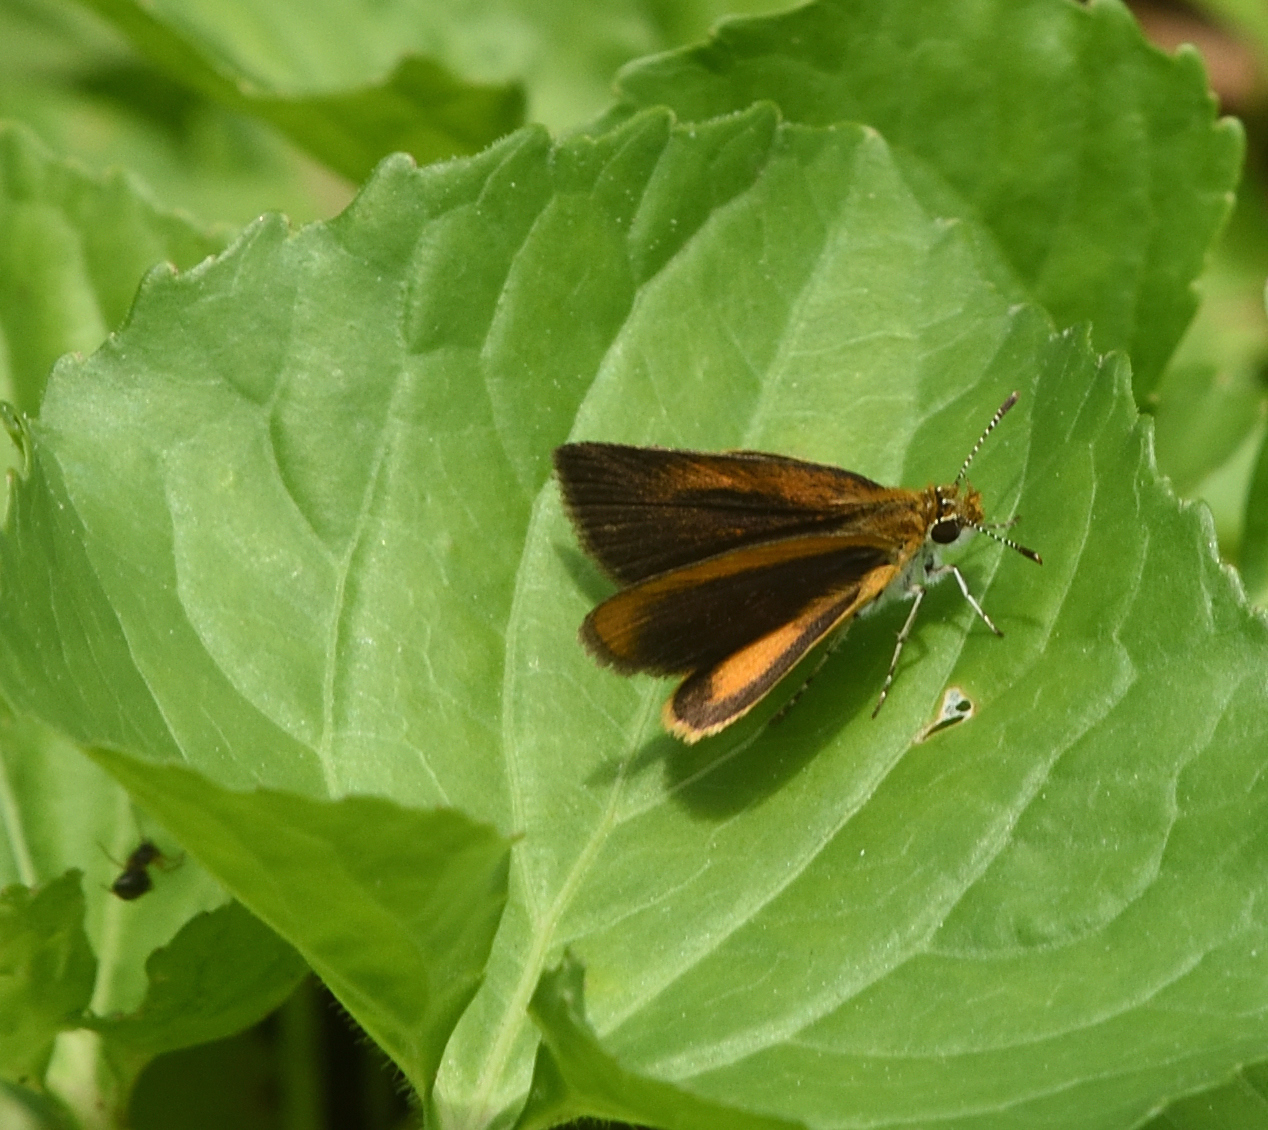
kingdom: Animalia
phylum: Arthropoda
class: Insecta
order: Lepidoptera
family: Hesperiidae
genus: Ancyloxypha
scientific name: Ancyloxypha numitor
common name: Least skipper
